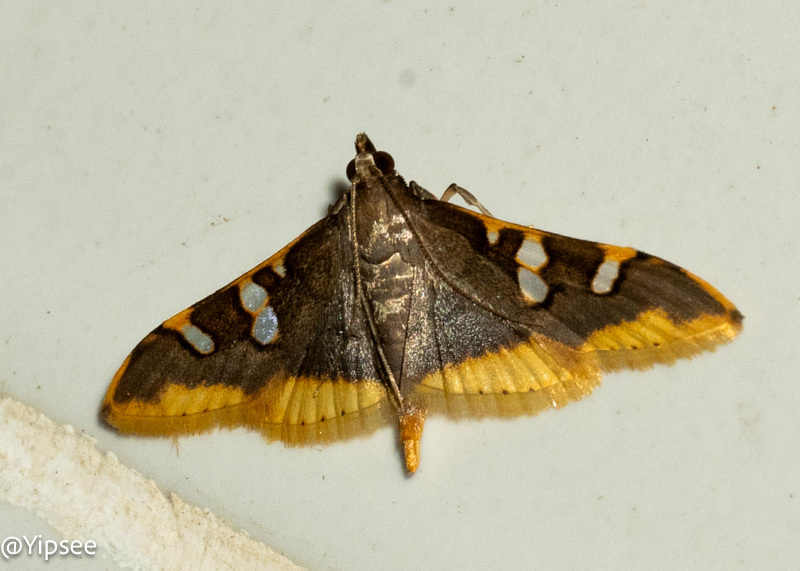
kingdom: Animalia
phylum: Arthropoda
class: Insecta
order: Lepidoptera
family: Crambidae
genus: Prophantis
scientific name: Prophantis adusta
